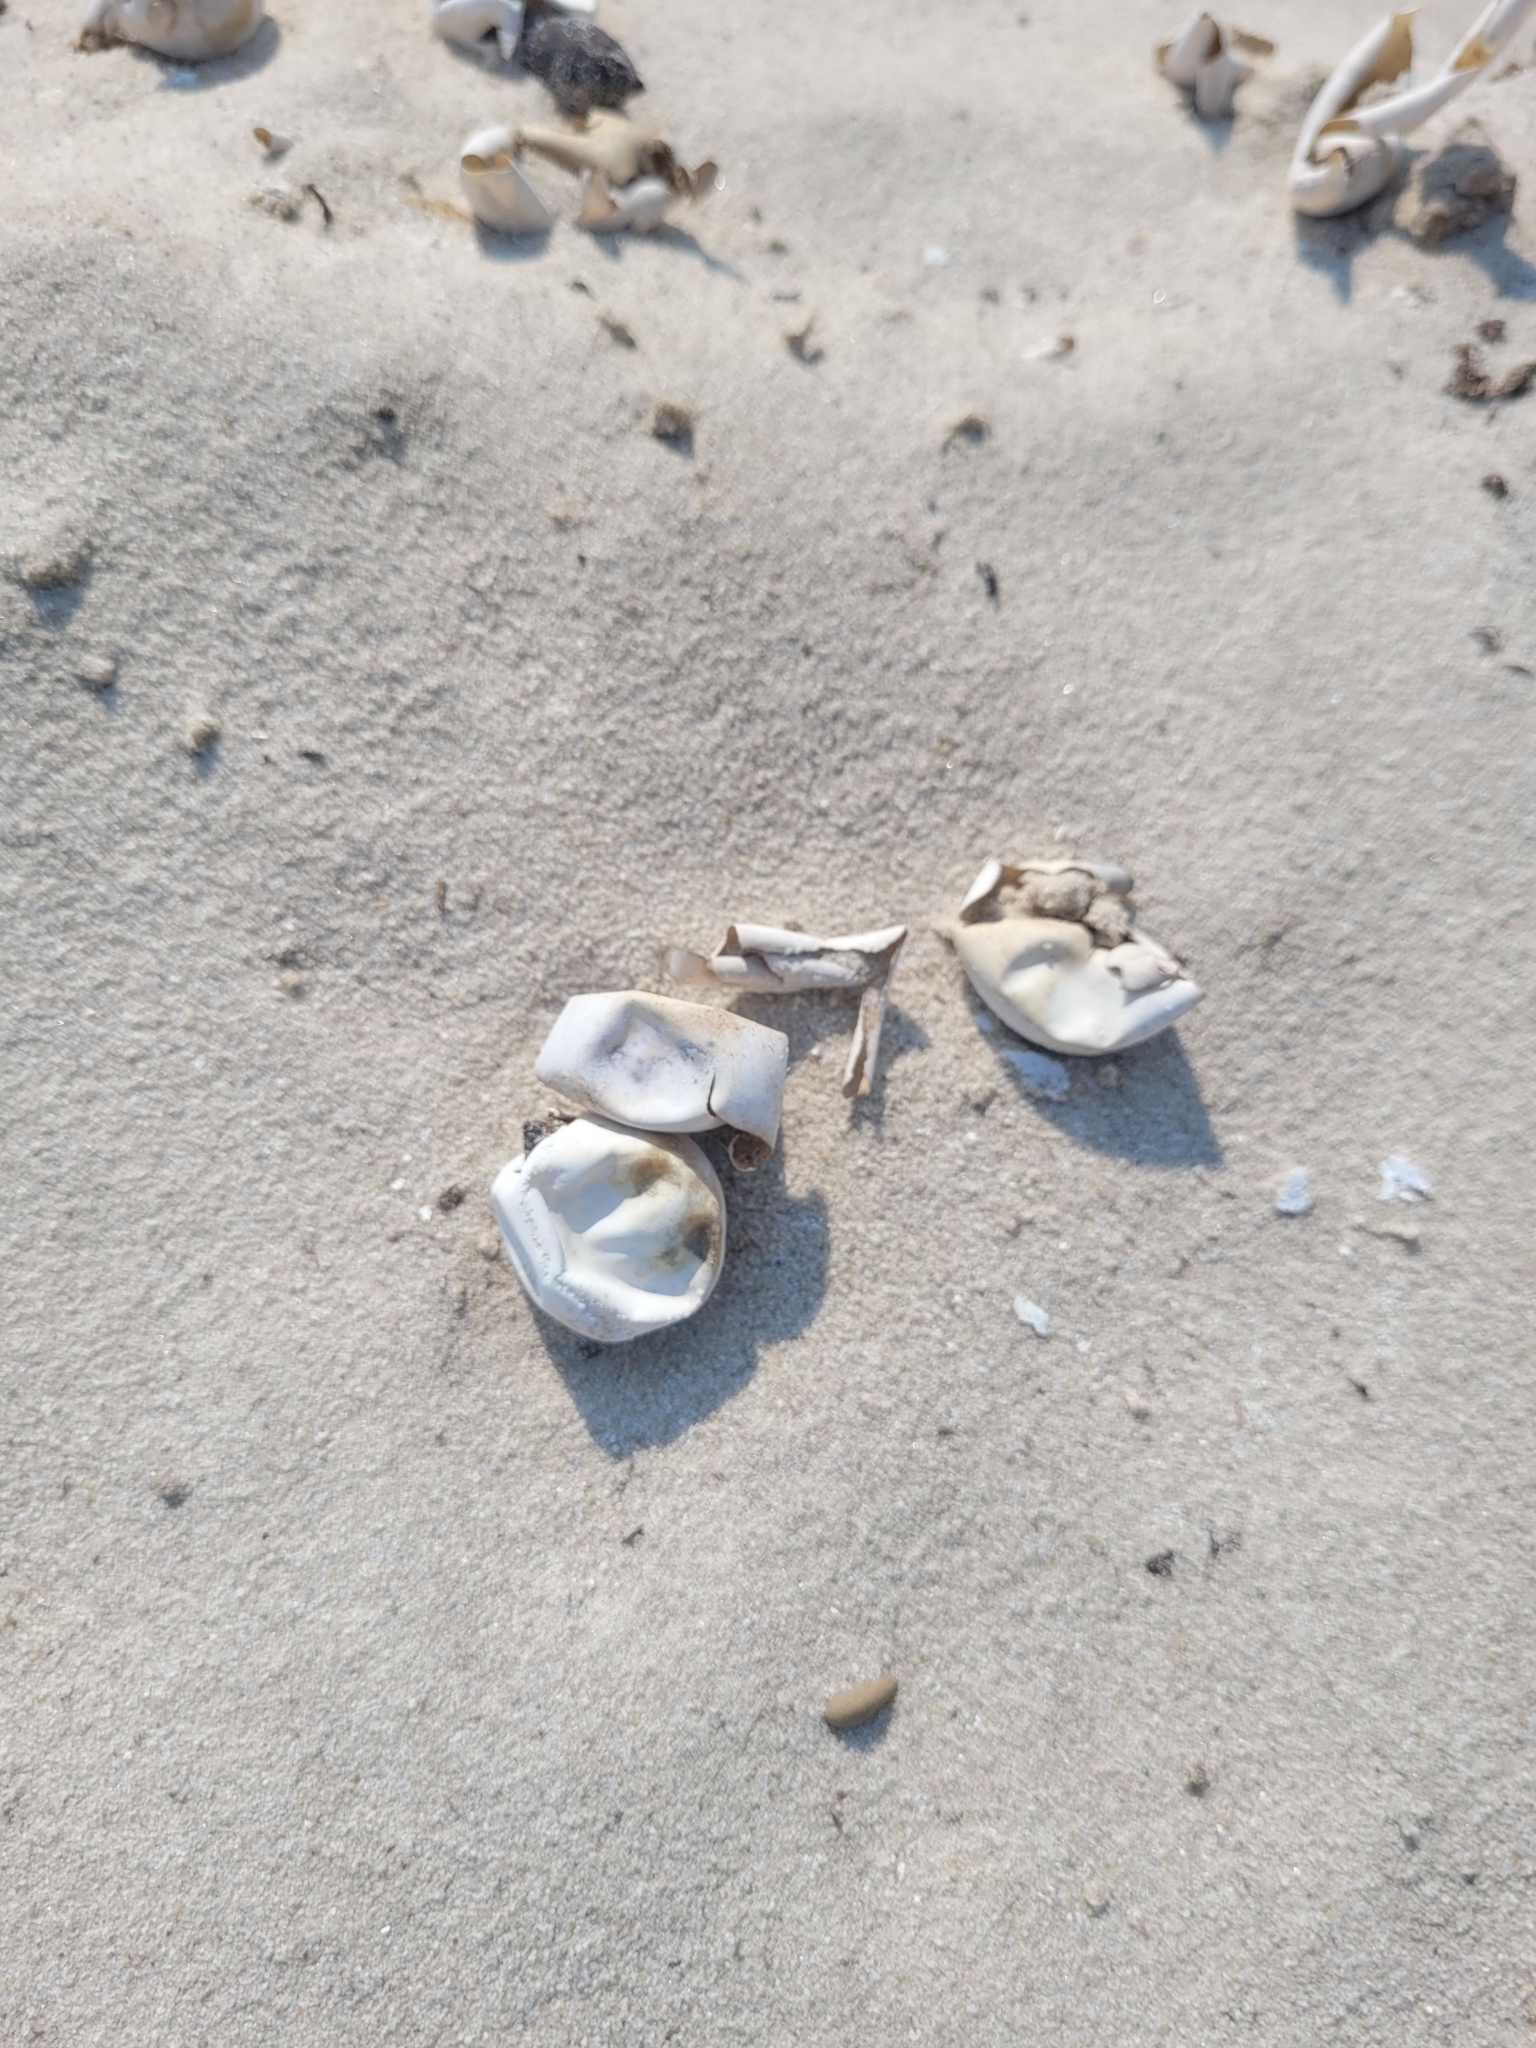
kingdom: Animalia
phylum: Chordata
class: Testudines
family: Chelydridae
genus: Chelydra
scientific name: Chelydra serpentina
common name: Common snapping turtle
